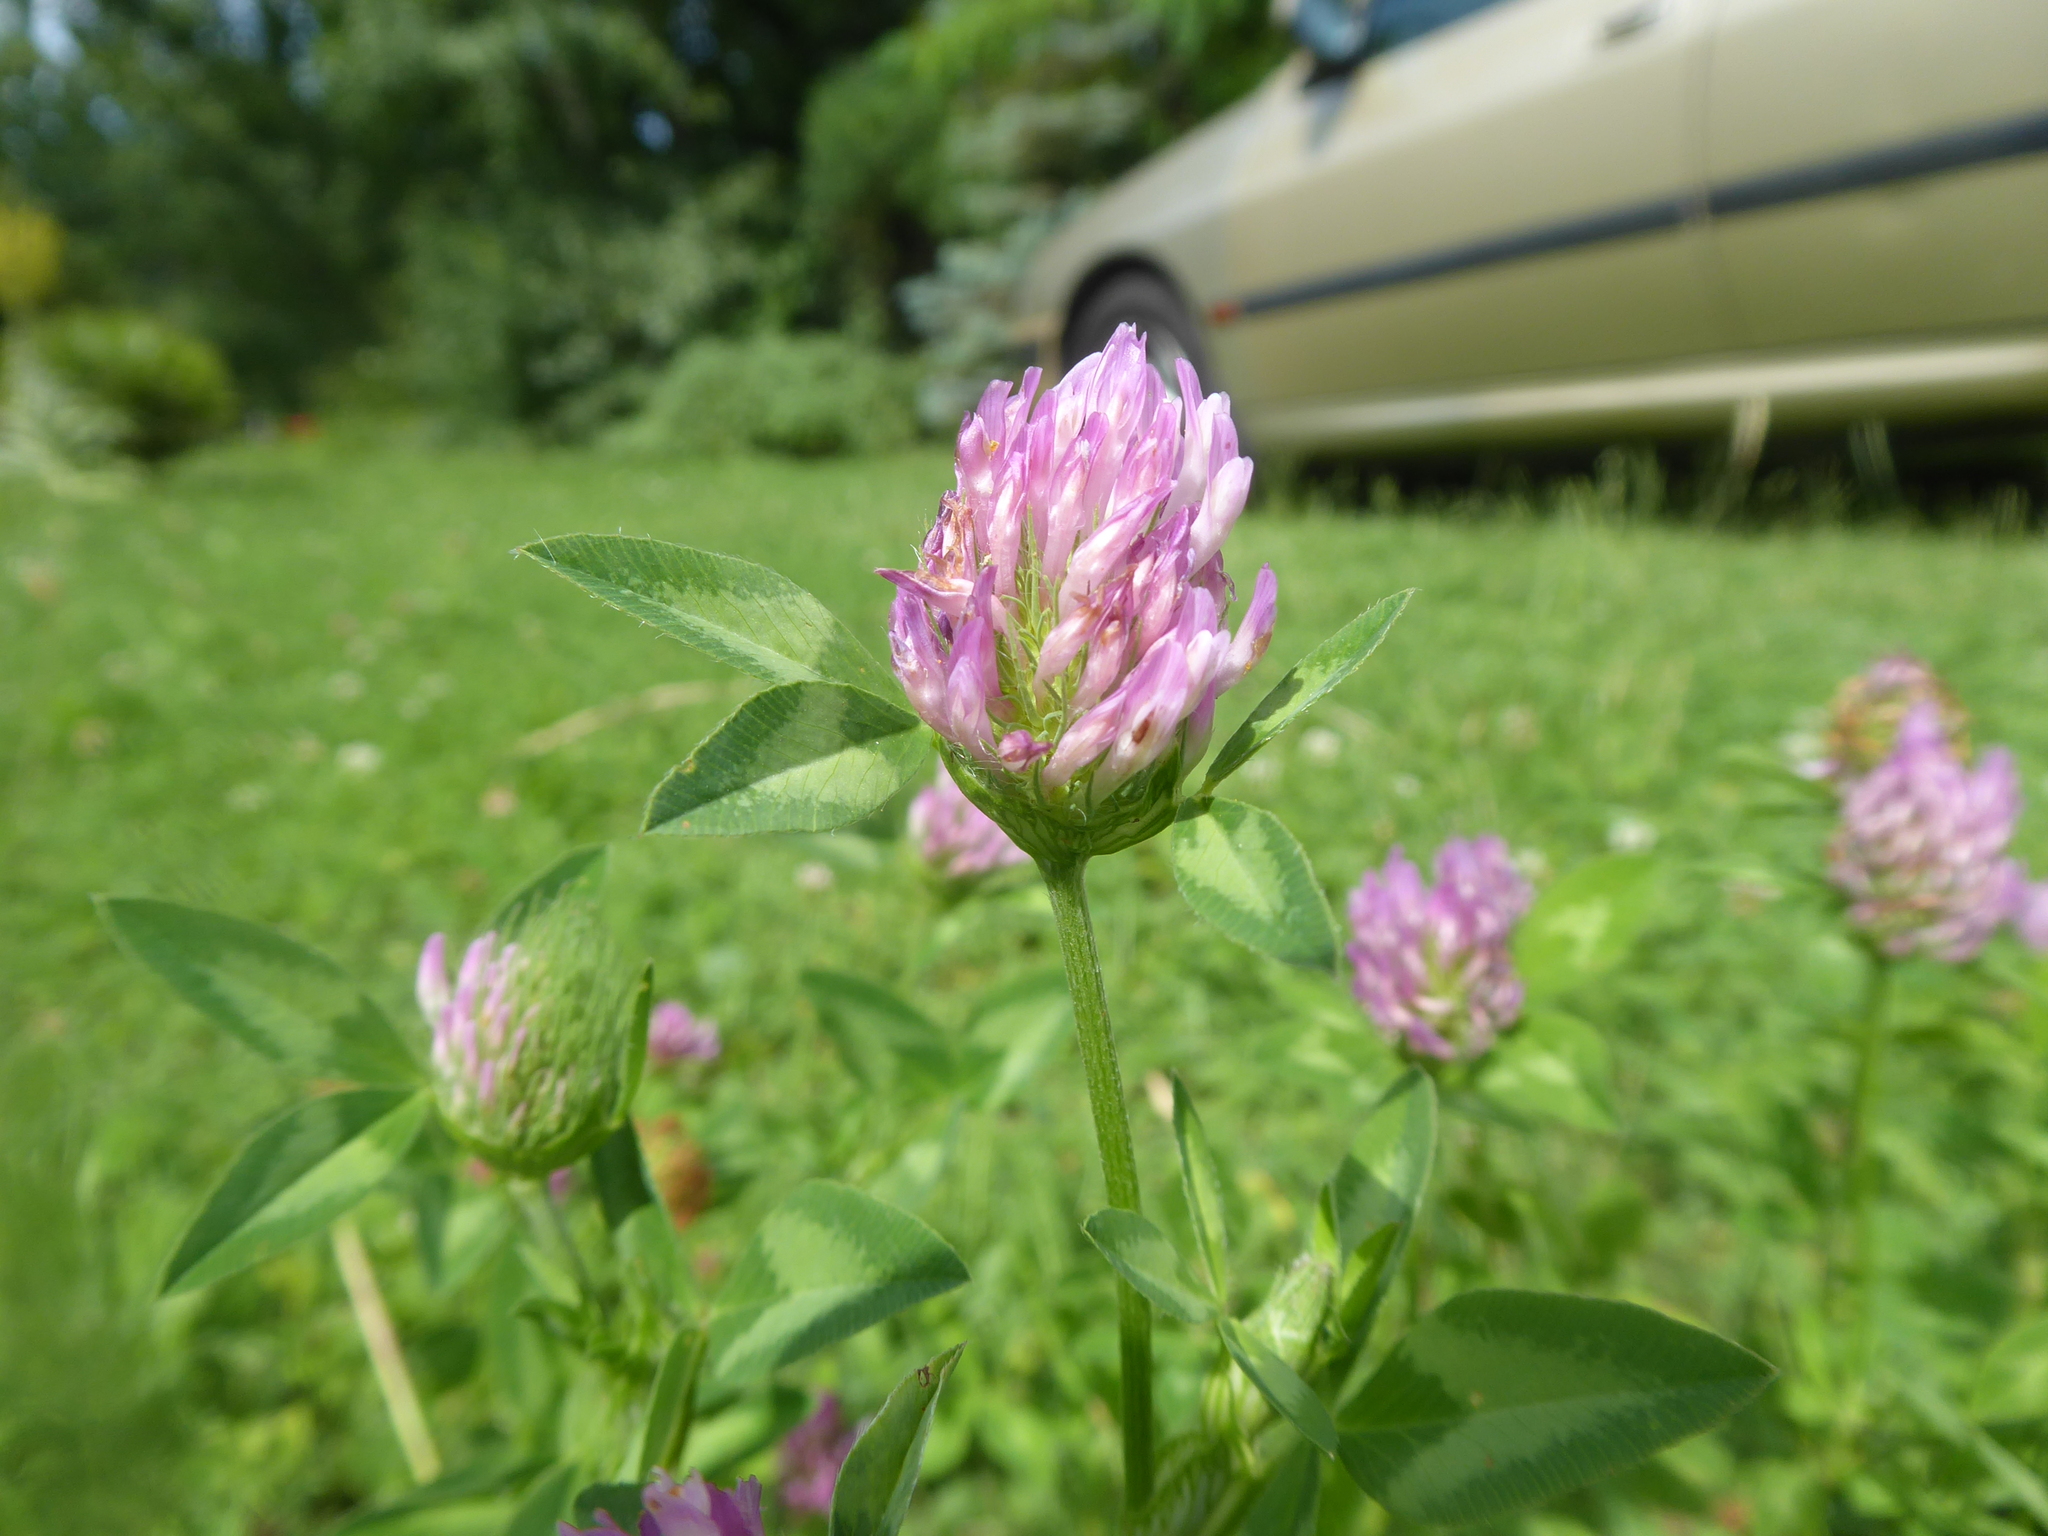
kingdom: Plantae
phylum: Tracheophyta
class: Magnoliopsida
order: Fabales
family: Fabaceae
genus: Trifolium
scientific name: Trifolium pratense
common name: Red clover
